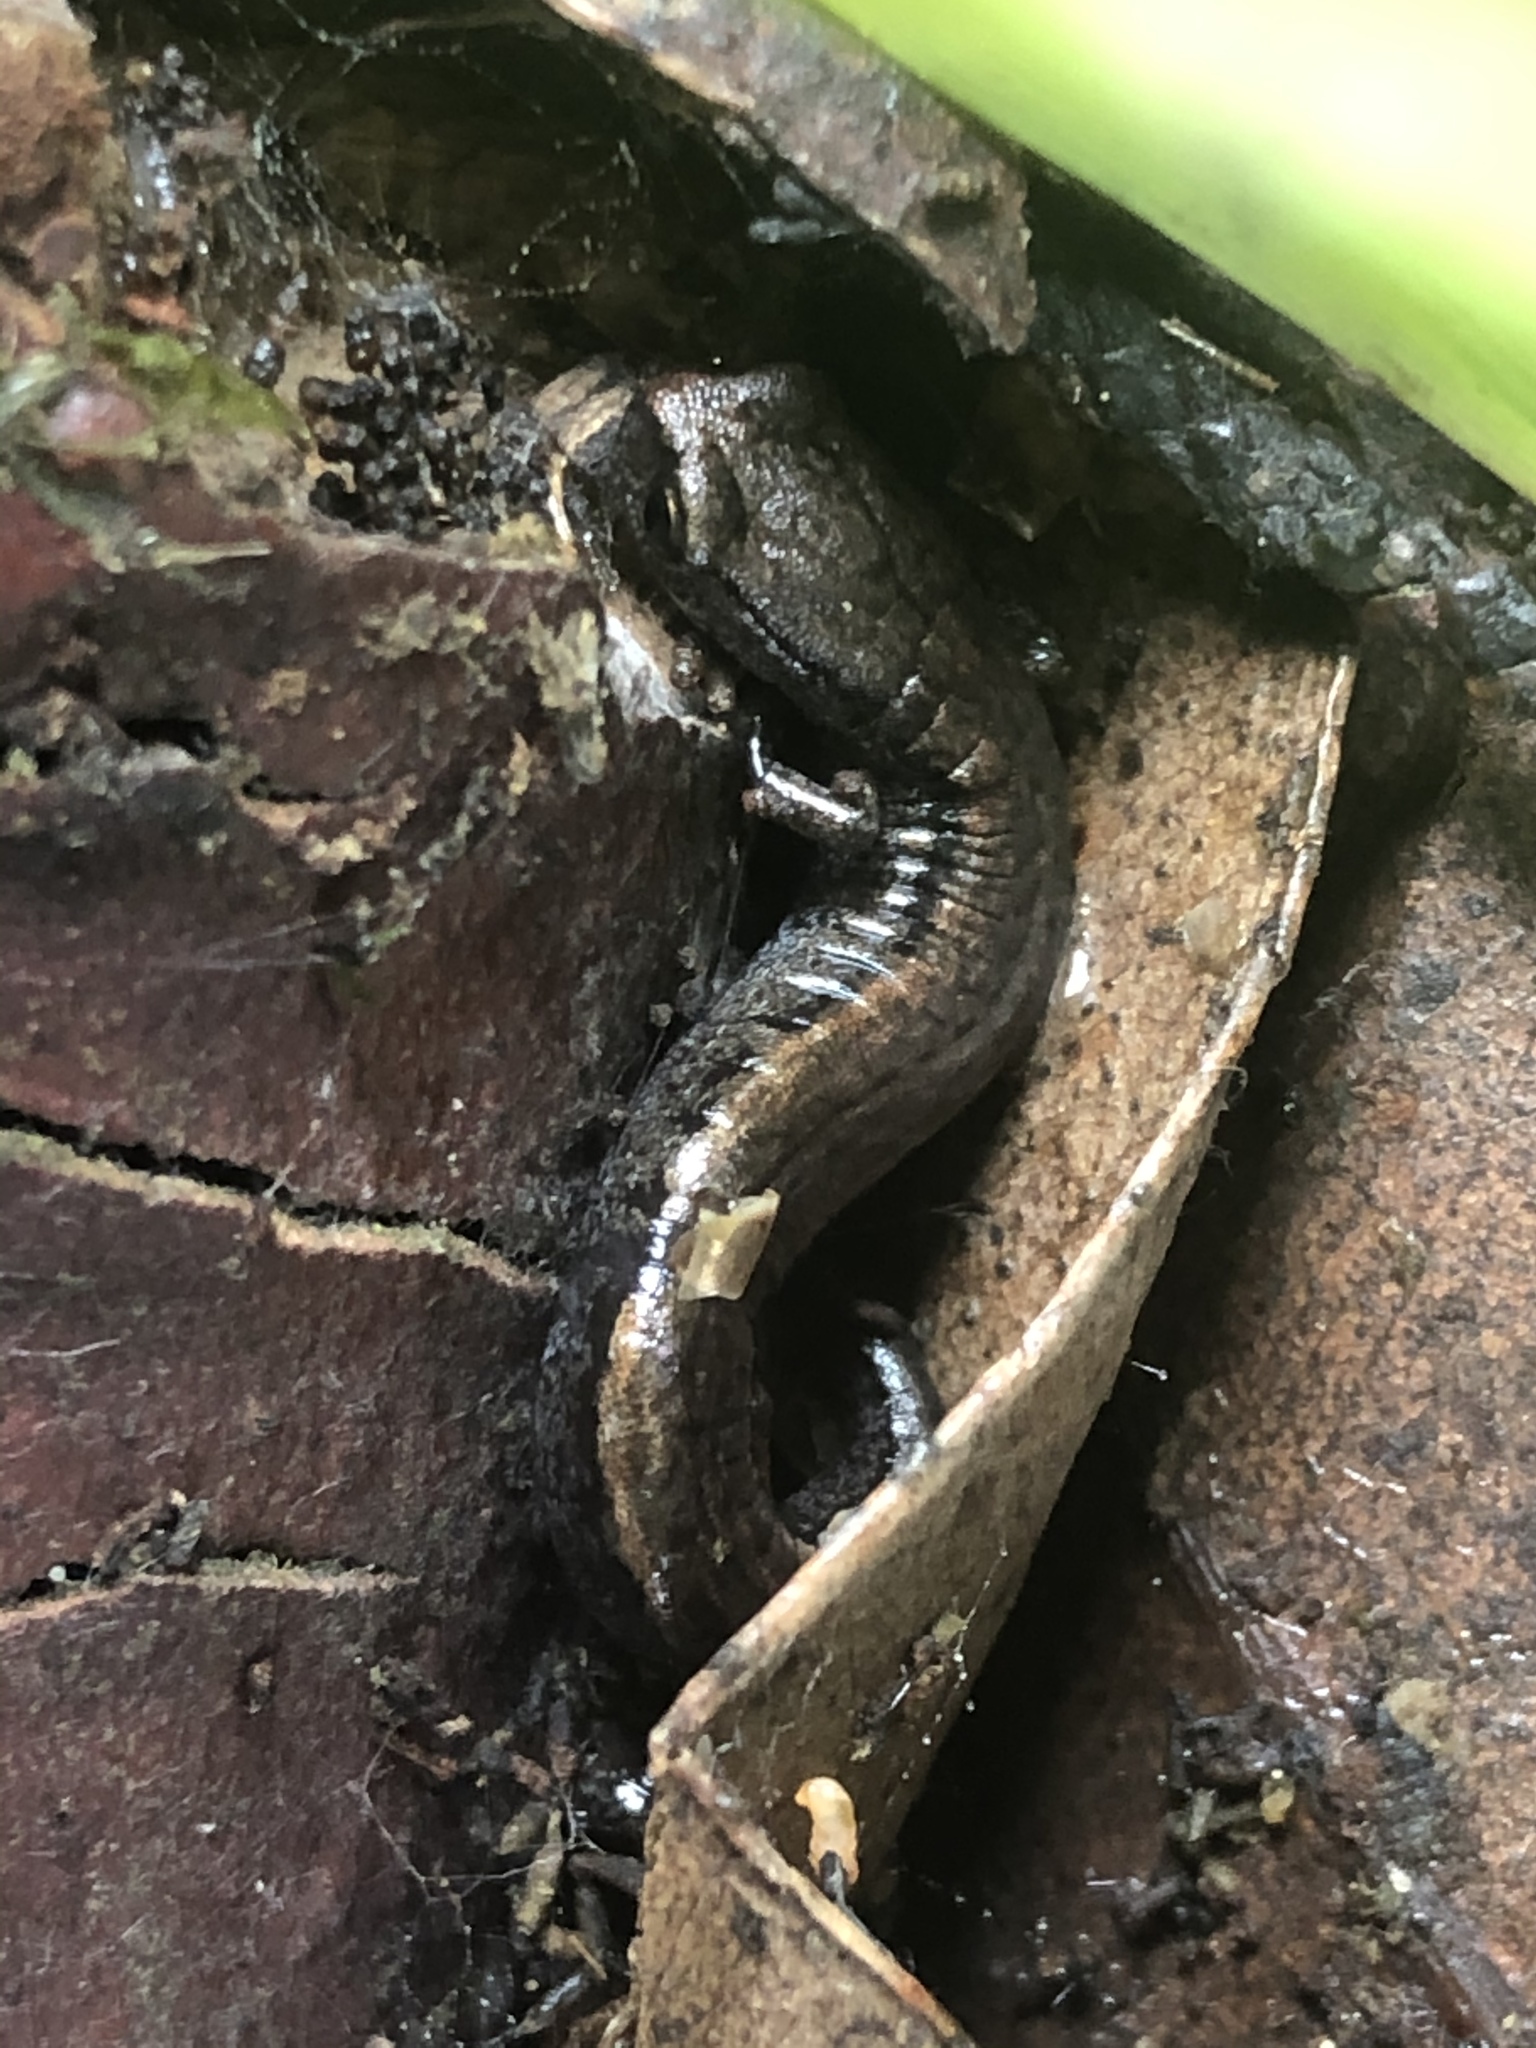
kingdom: Animalia
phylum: Chordata
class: Amphibia
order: Caudata
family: Plethodontidae
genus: Batrachoseps
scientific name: Batrachoseps attenuatus
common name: California slender salamander
